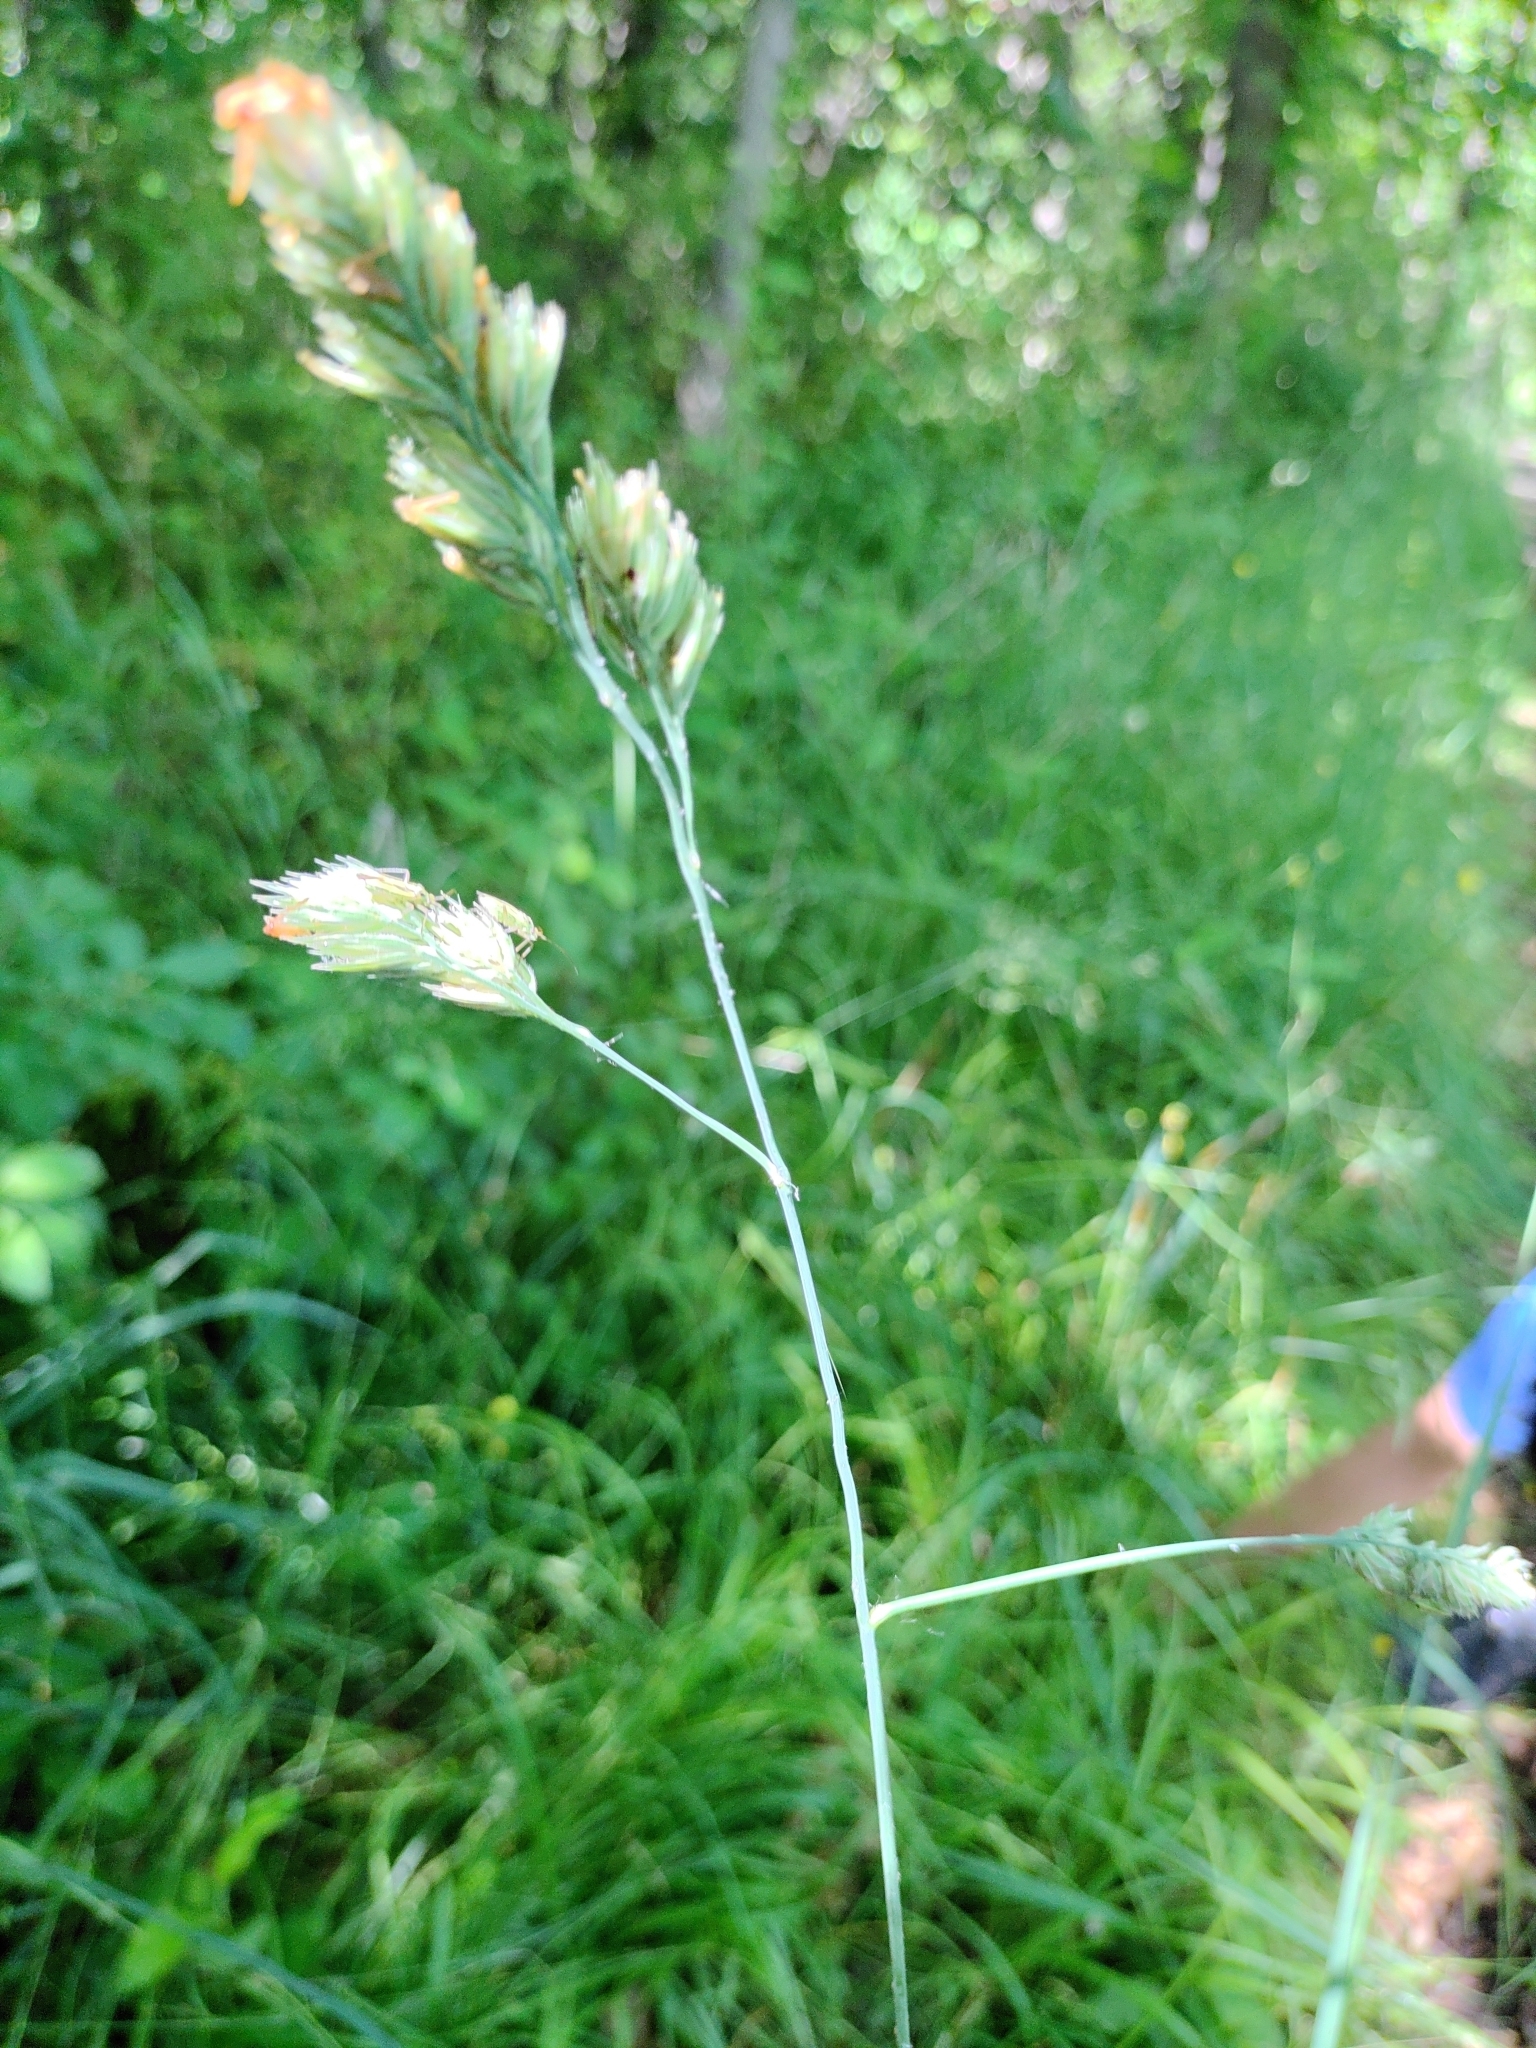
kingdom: Plantae
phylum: Tracheophyta
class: Liliopsida
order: Poales
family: Poaceae
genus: Dactylis
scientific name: Dactylis glomerata
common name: Orchardgrass
